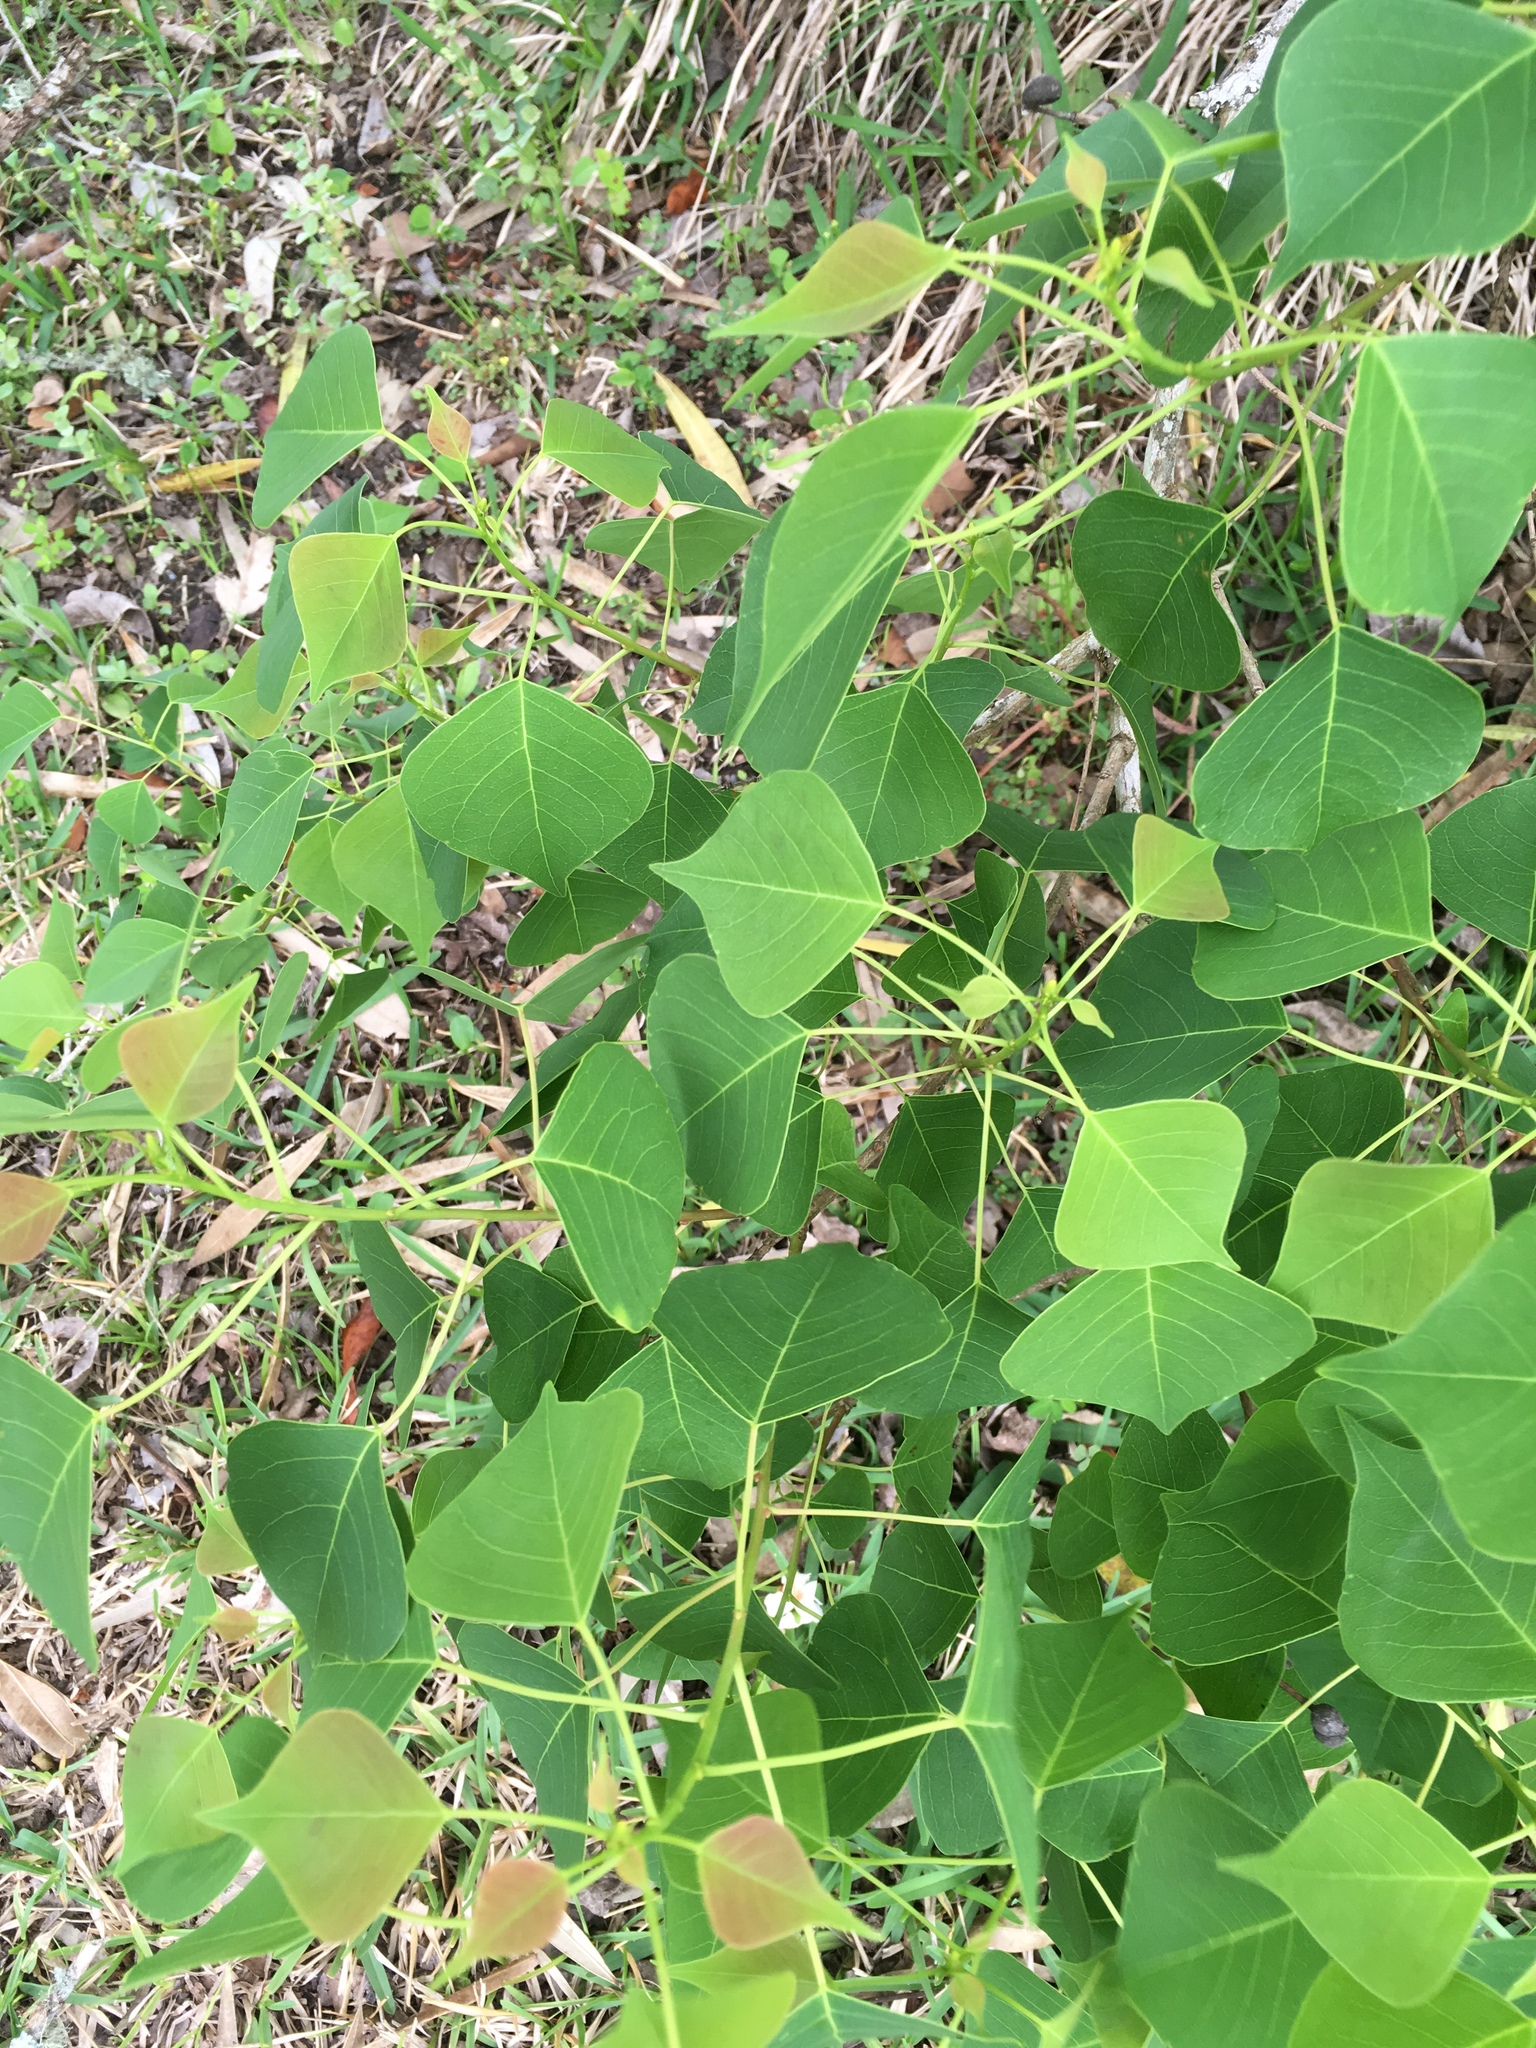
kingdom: Plantae
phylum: Tracheophyta
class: Magnoliopsida
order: Malpighiales
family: Euphorbiaceae
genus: Triadica
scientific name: Triadica sebifera
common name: Chinese tallow
